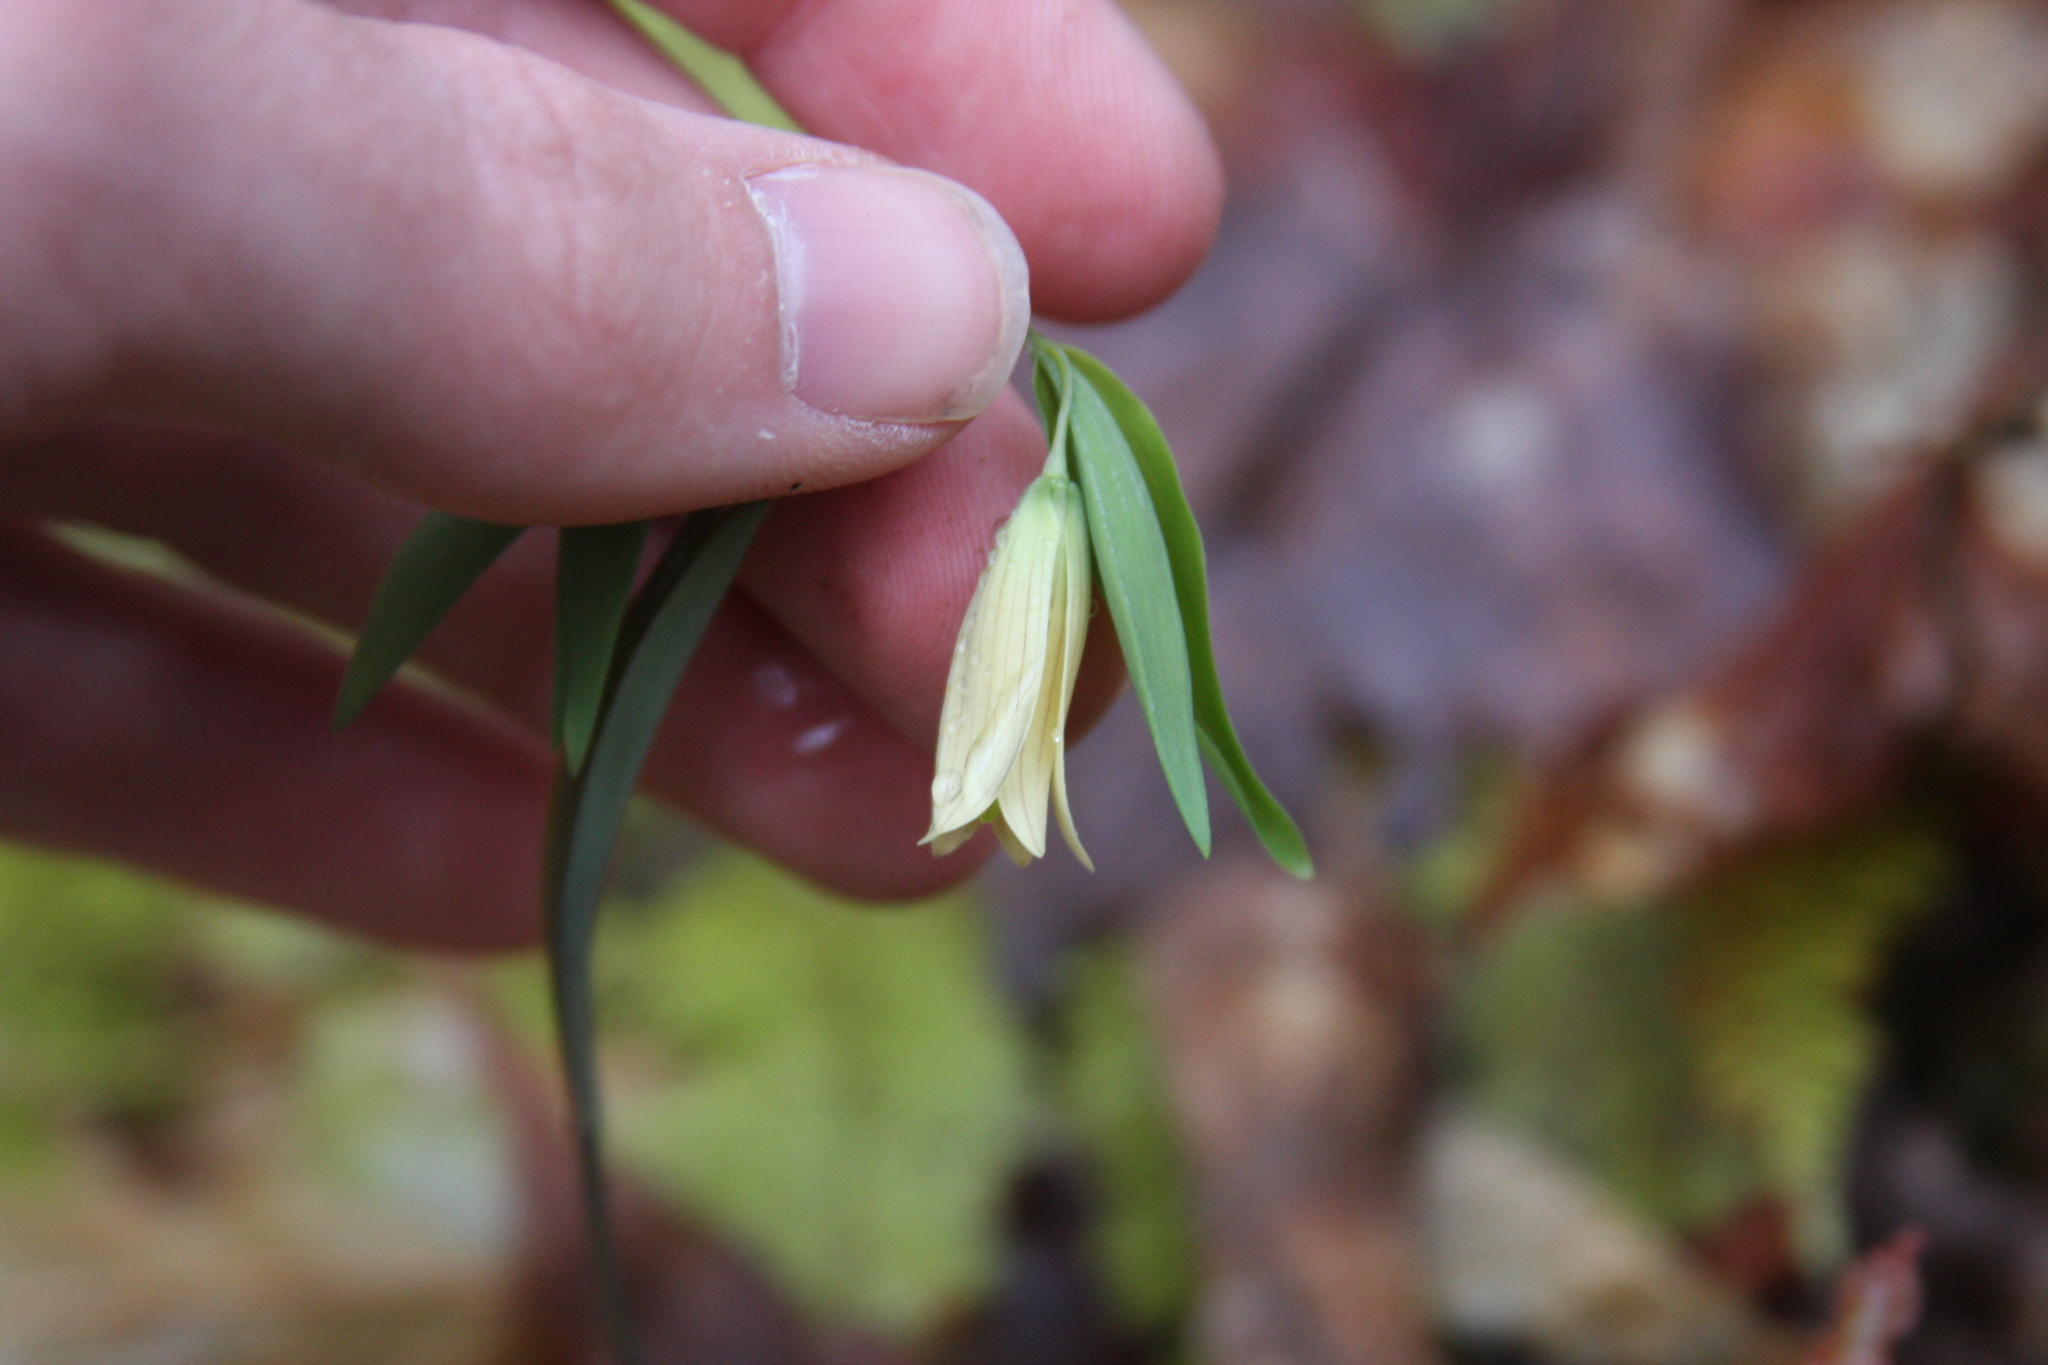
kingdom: Plantae
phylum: Tracheophyta
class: Liliopsida
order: Liliales
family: Colchicaceae
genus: Uvularia
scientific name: Uvularia sessilifolia
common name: Straw-lily
